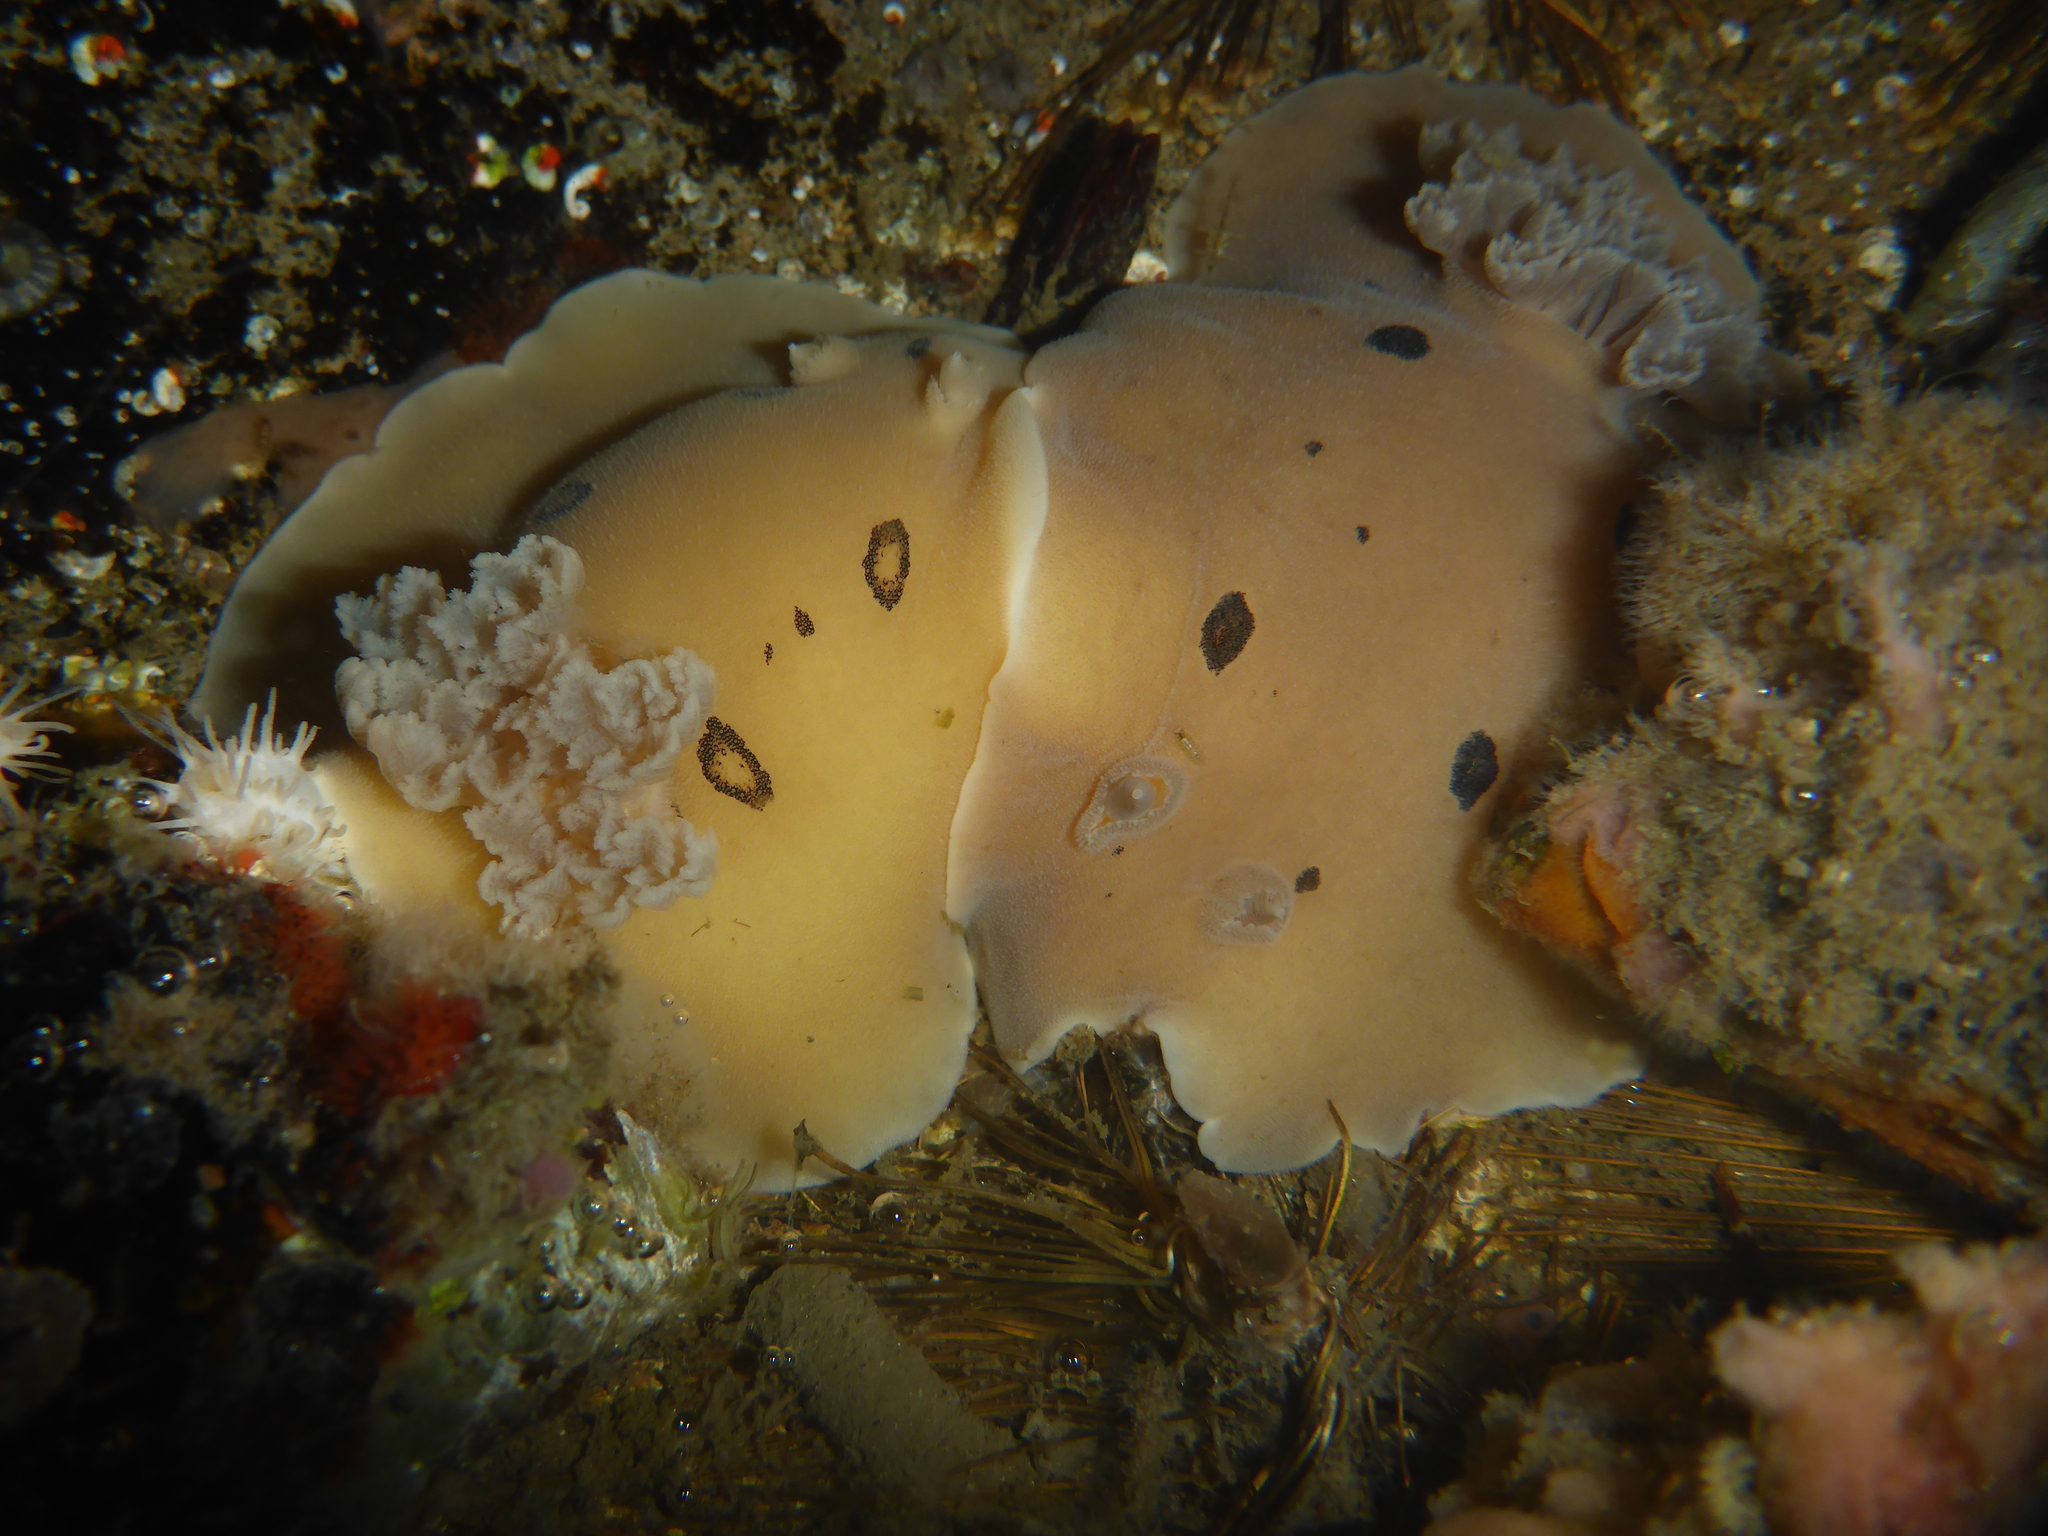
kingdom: Animalia
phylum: Mollusca
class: Gastropoda
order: Nudibranchia
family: Discodorididae
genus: Diaulula
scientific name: Diaulula sandiegensis
